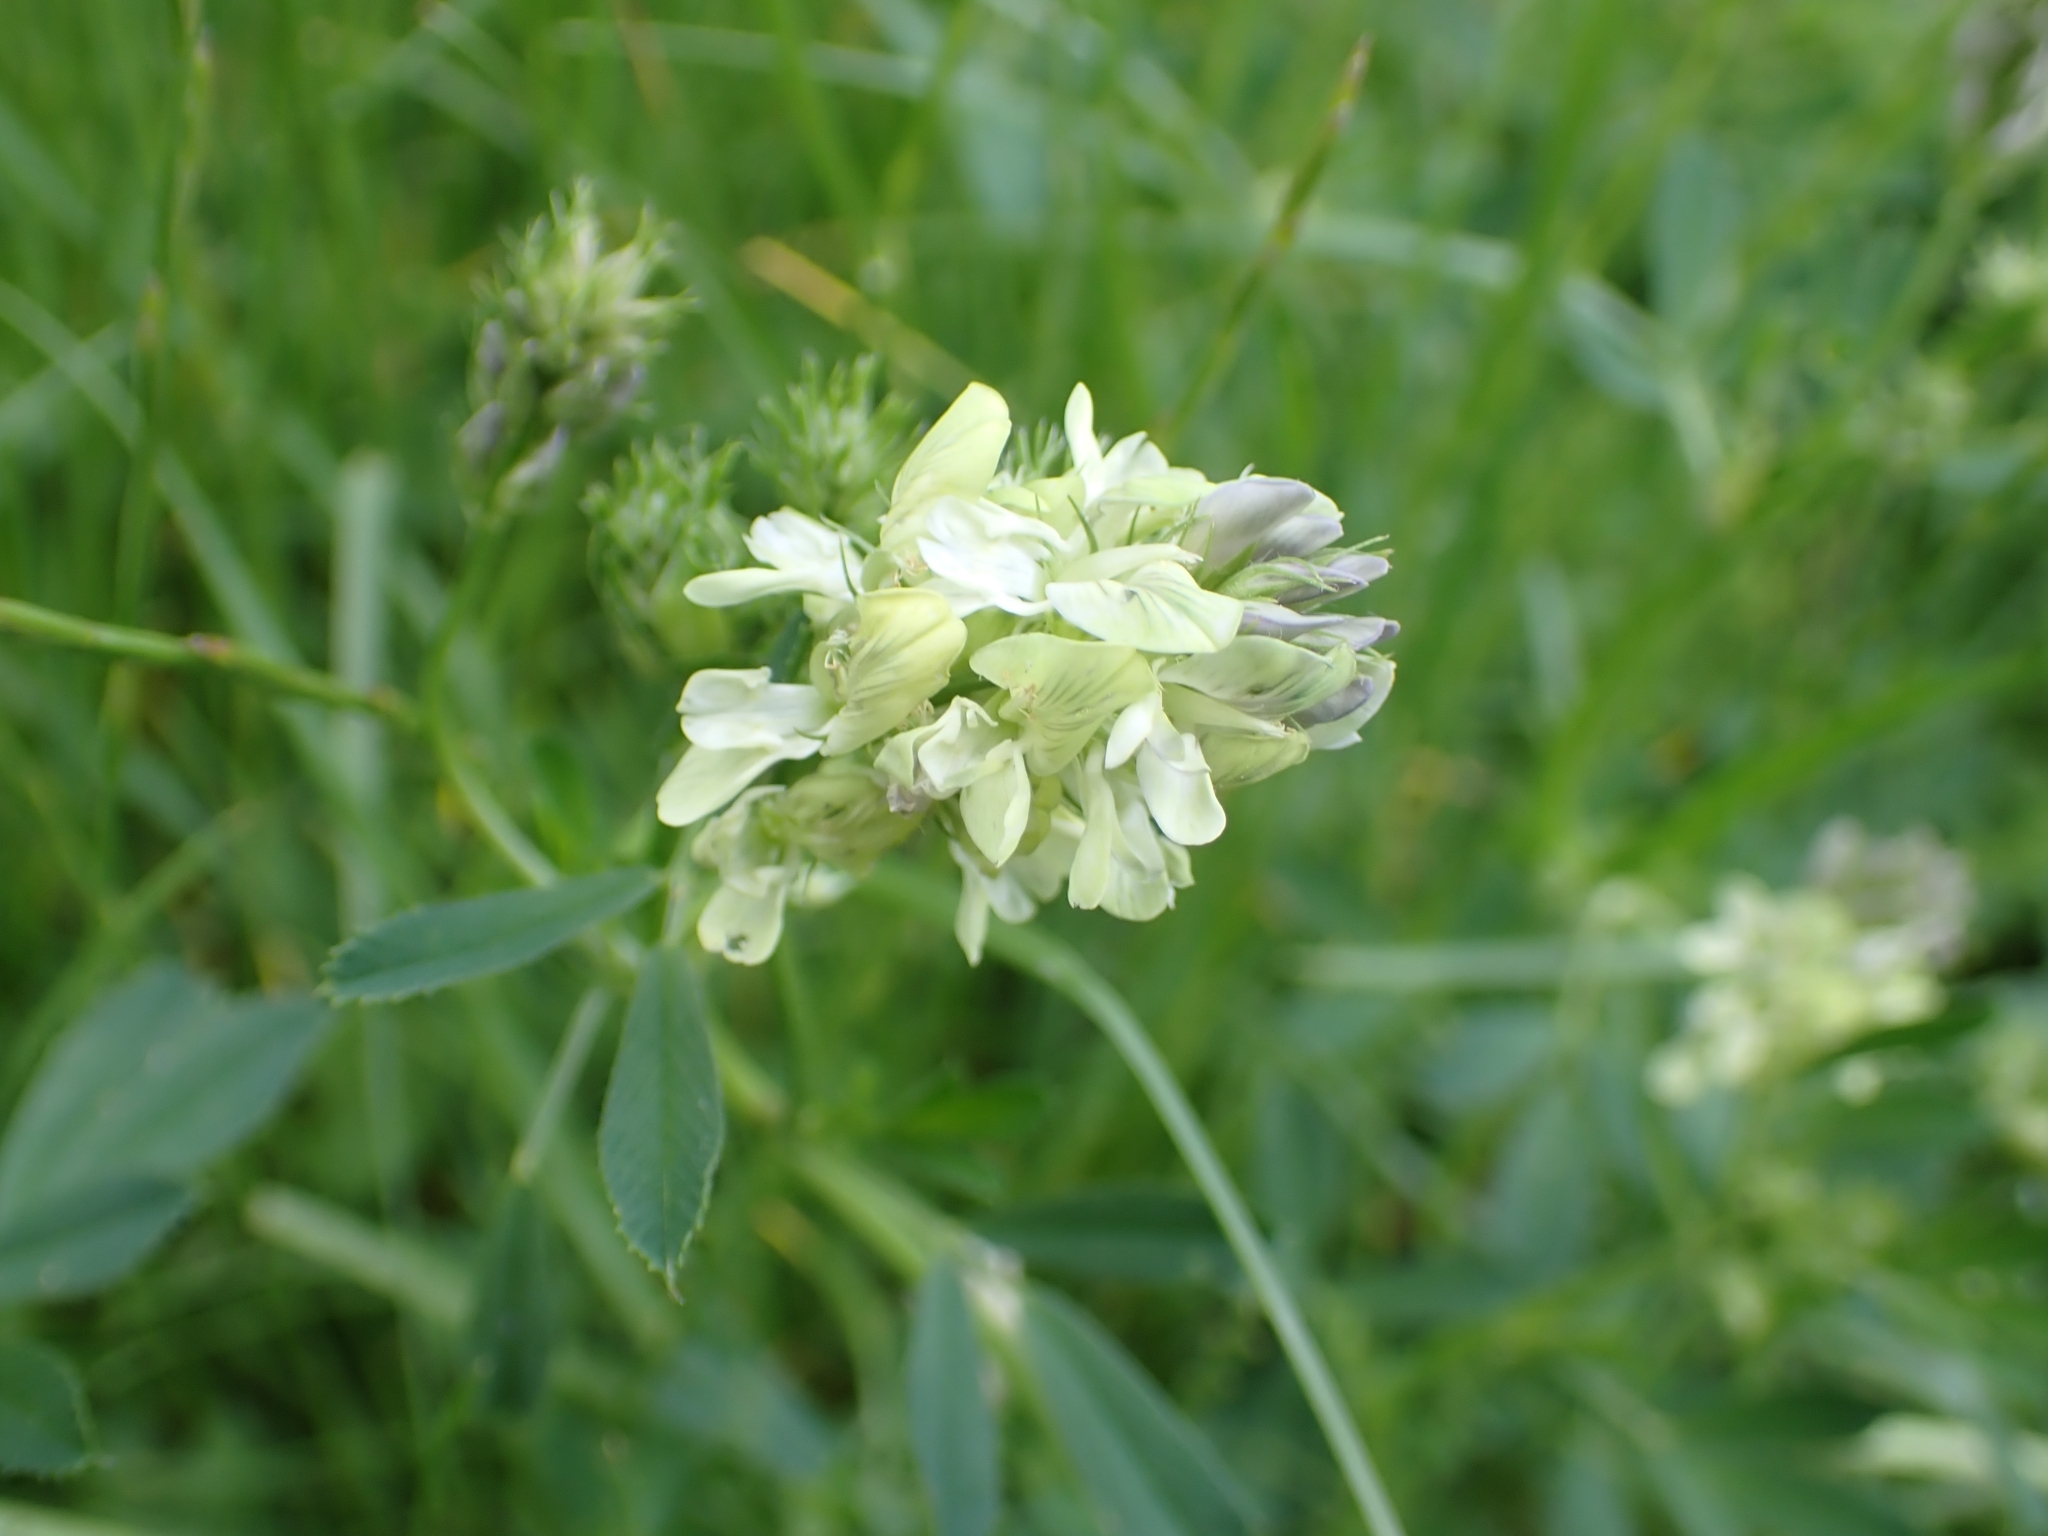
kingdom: Plantae
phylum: Tracheophyta
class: Magnoliopsida
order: Fabales
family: Fabaceae
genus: Medicago
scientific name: Medicago varia
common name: Sand lucerne
